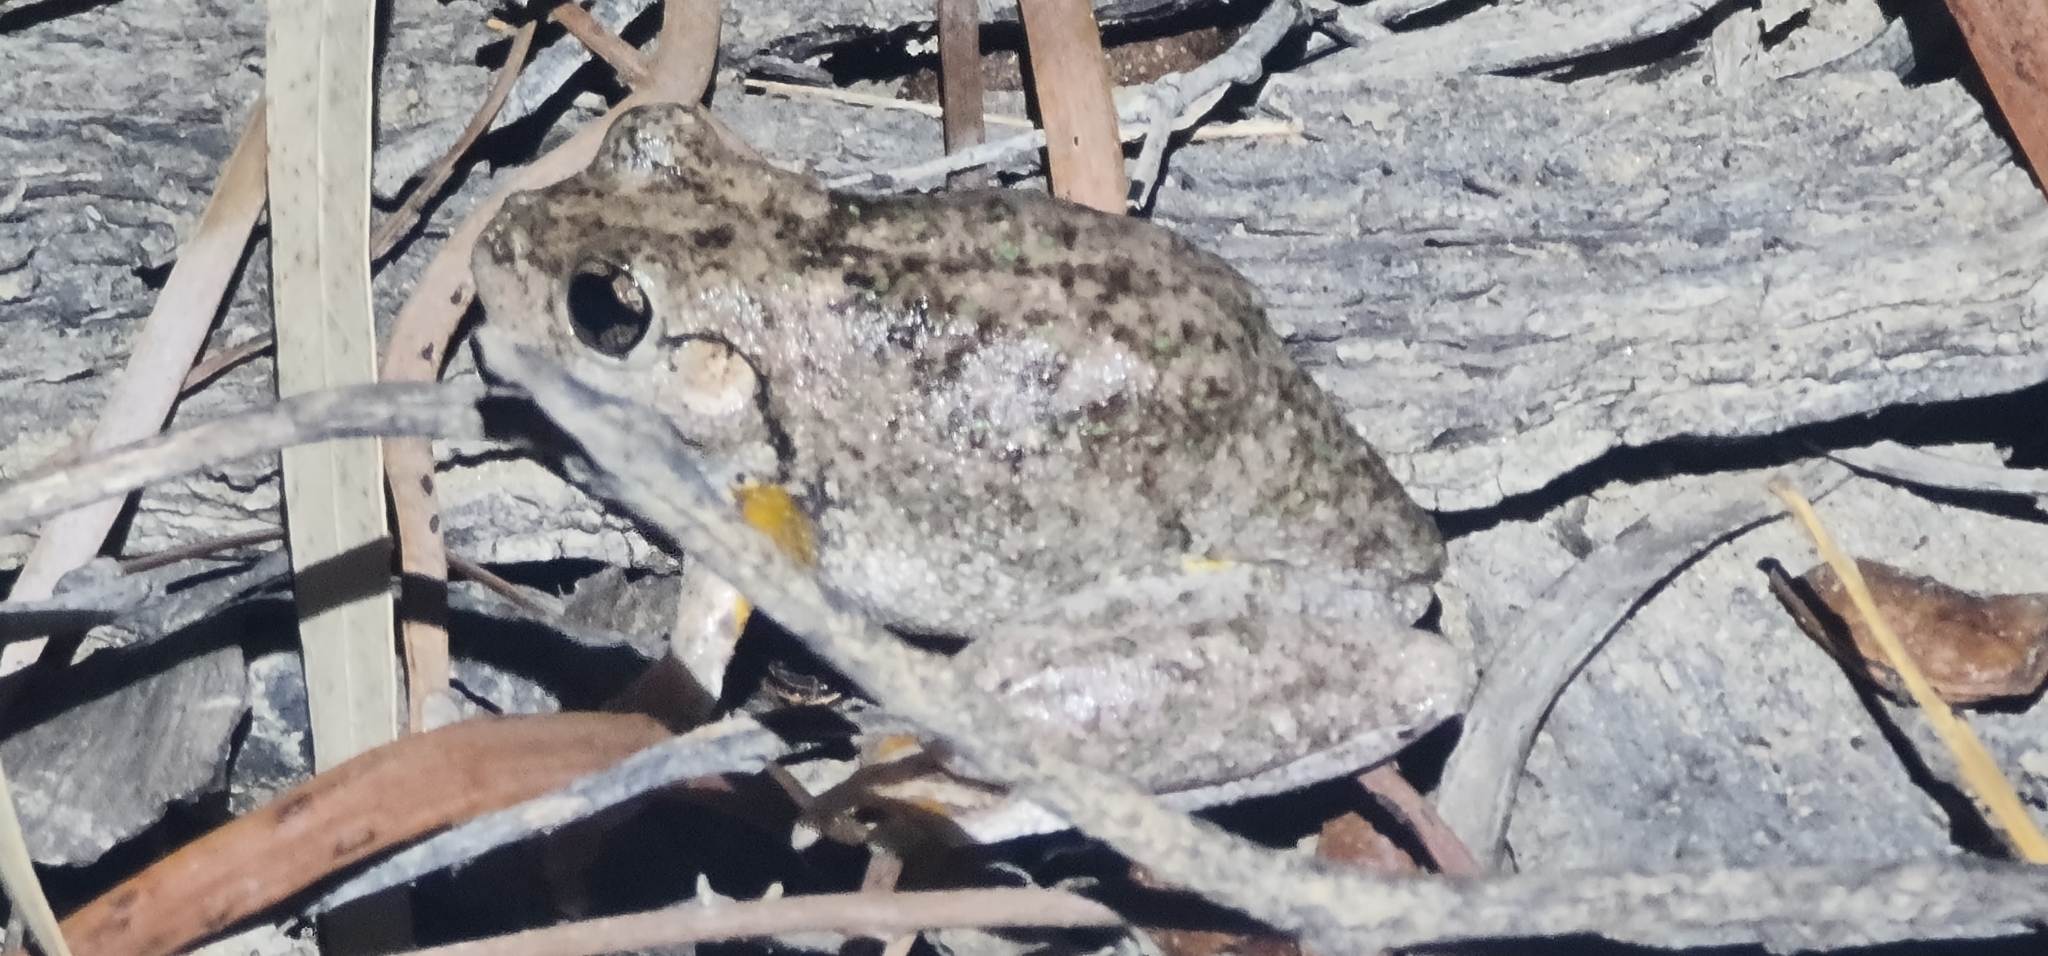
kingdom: Animalia
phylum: Chordata
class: Amphibia
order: Anura
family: Pelodryadidae
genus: Litoria
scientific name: Litoria peronii
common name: Emerald spotted treefrog
